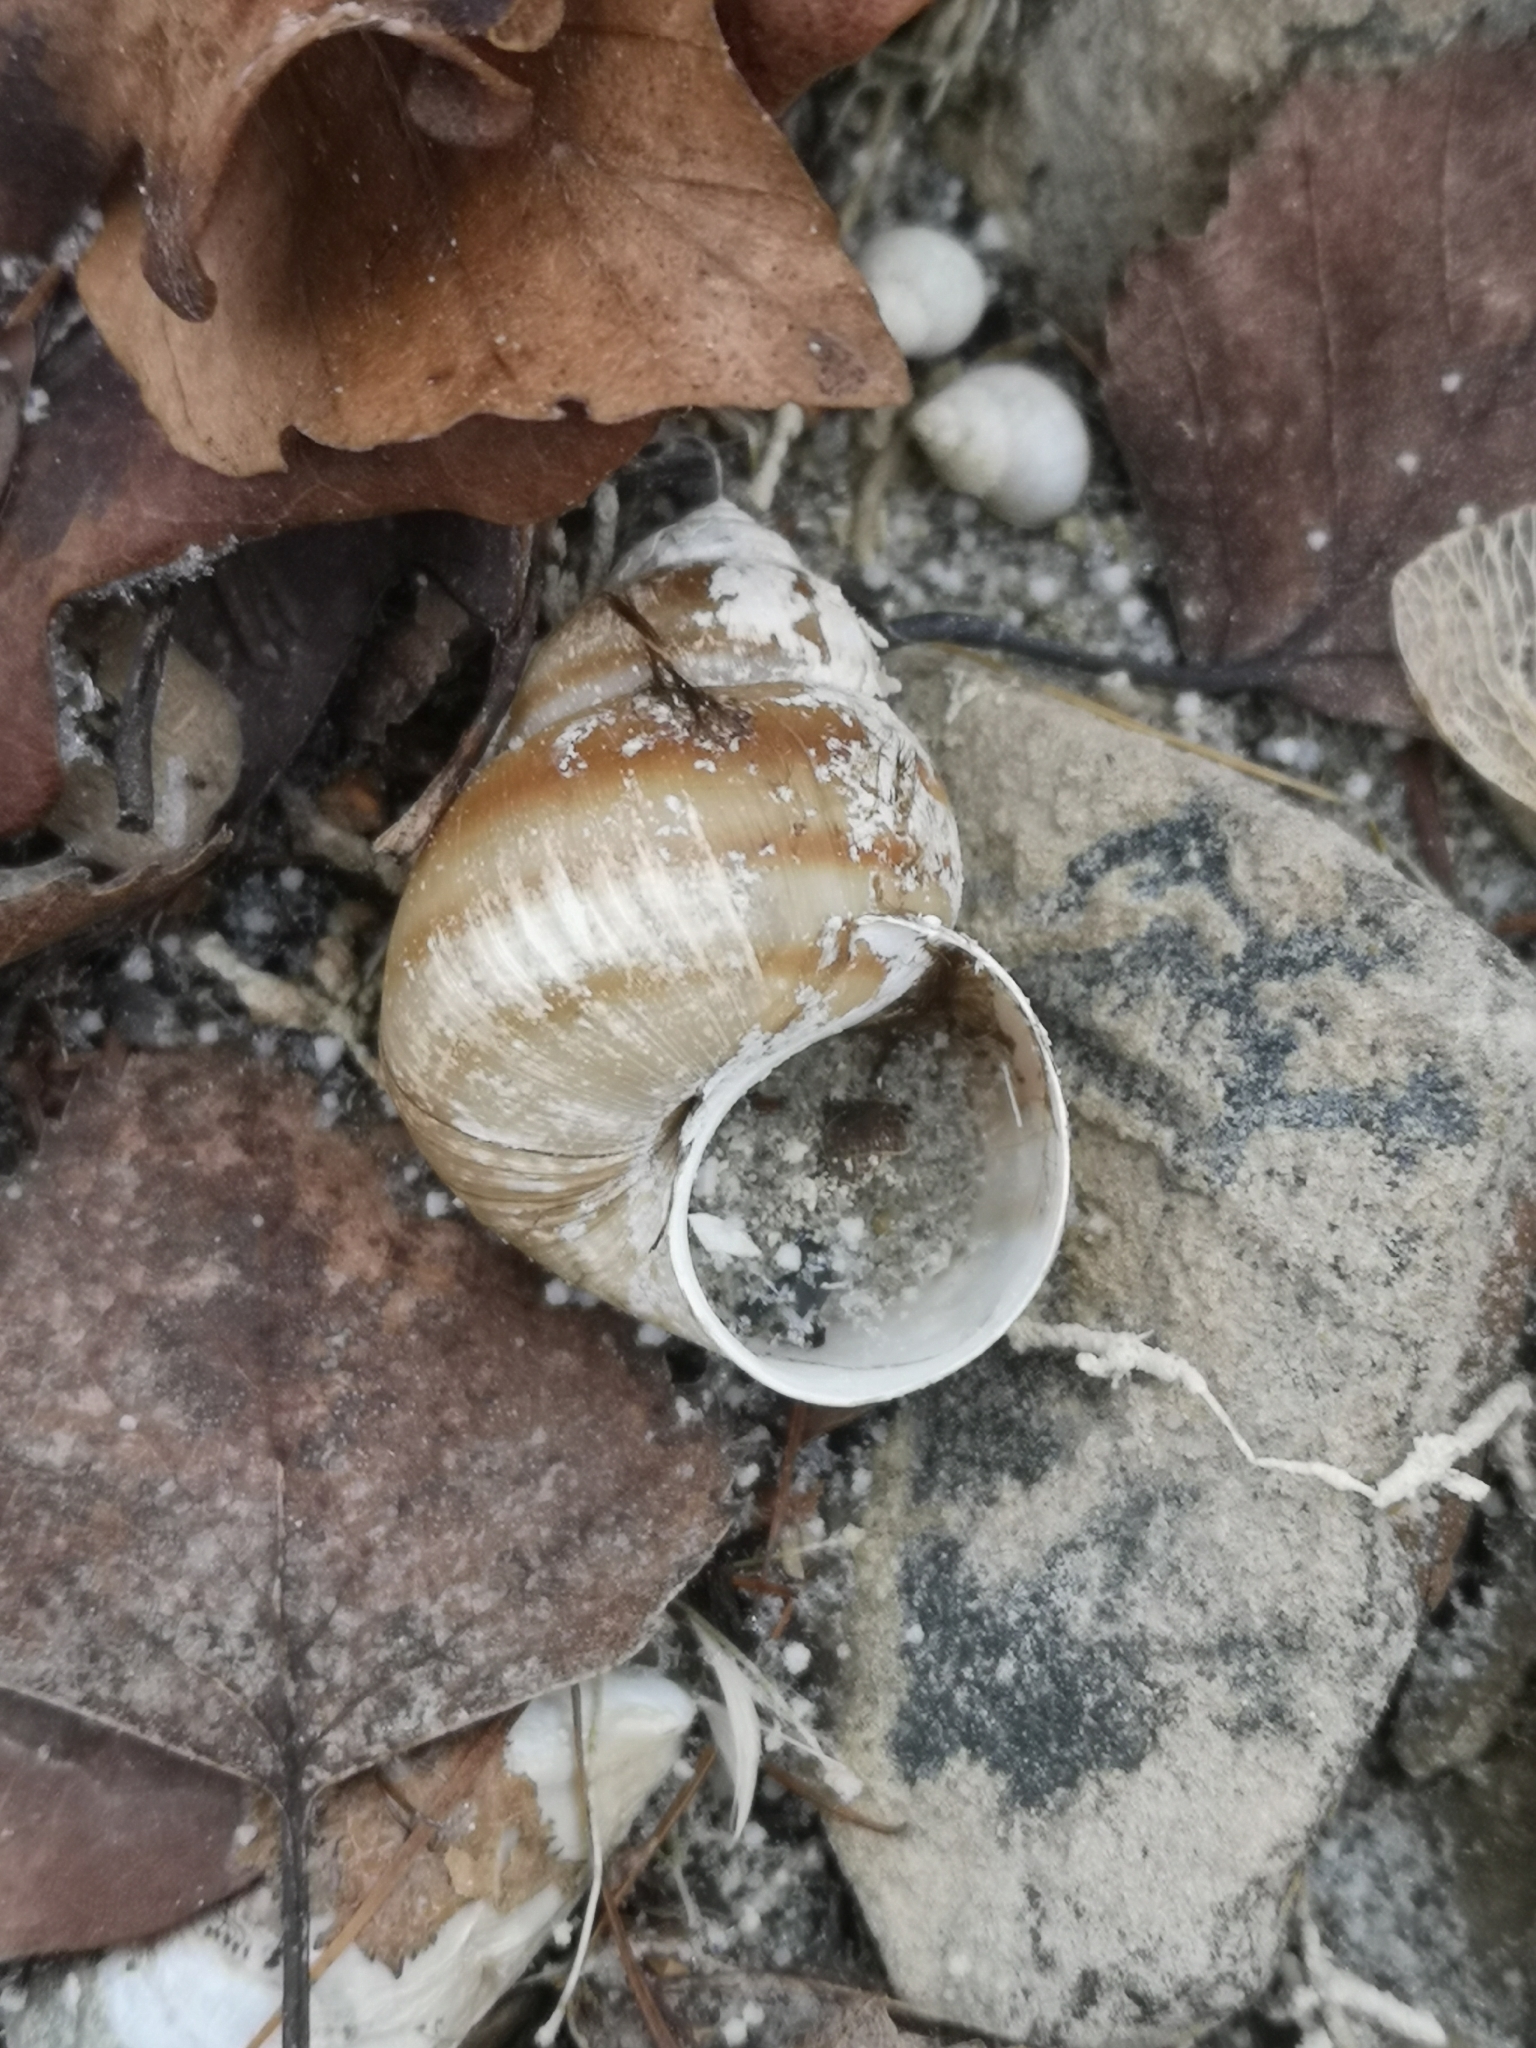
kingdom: Animalia
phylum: Mollusca
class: Gastropoda
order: Architaenioglossa
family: Viviparidae
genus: Viviparus
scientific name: Viviparus ater
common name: Italian river snail
